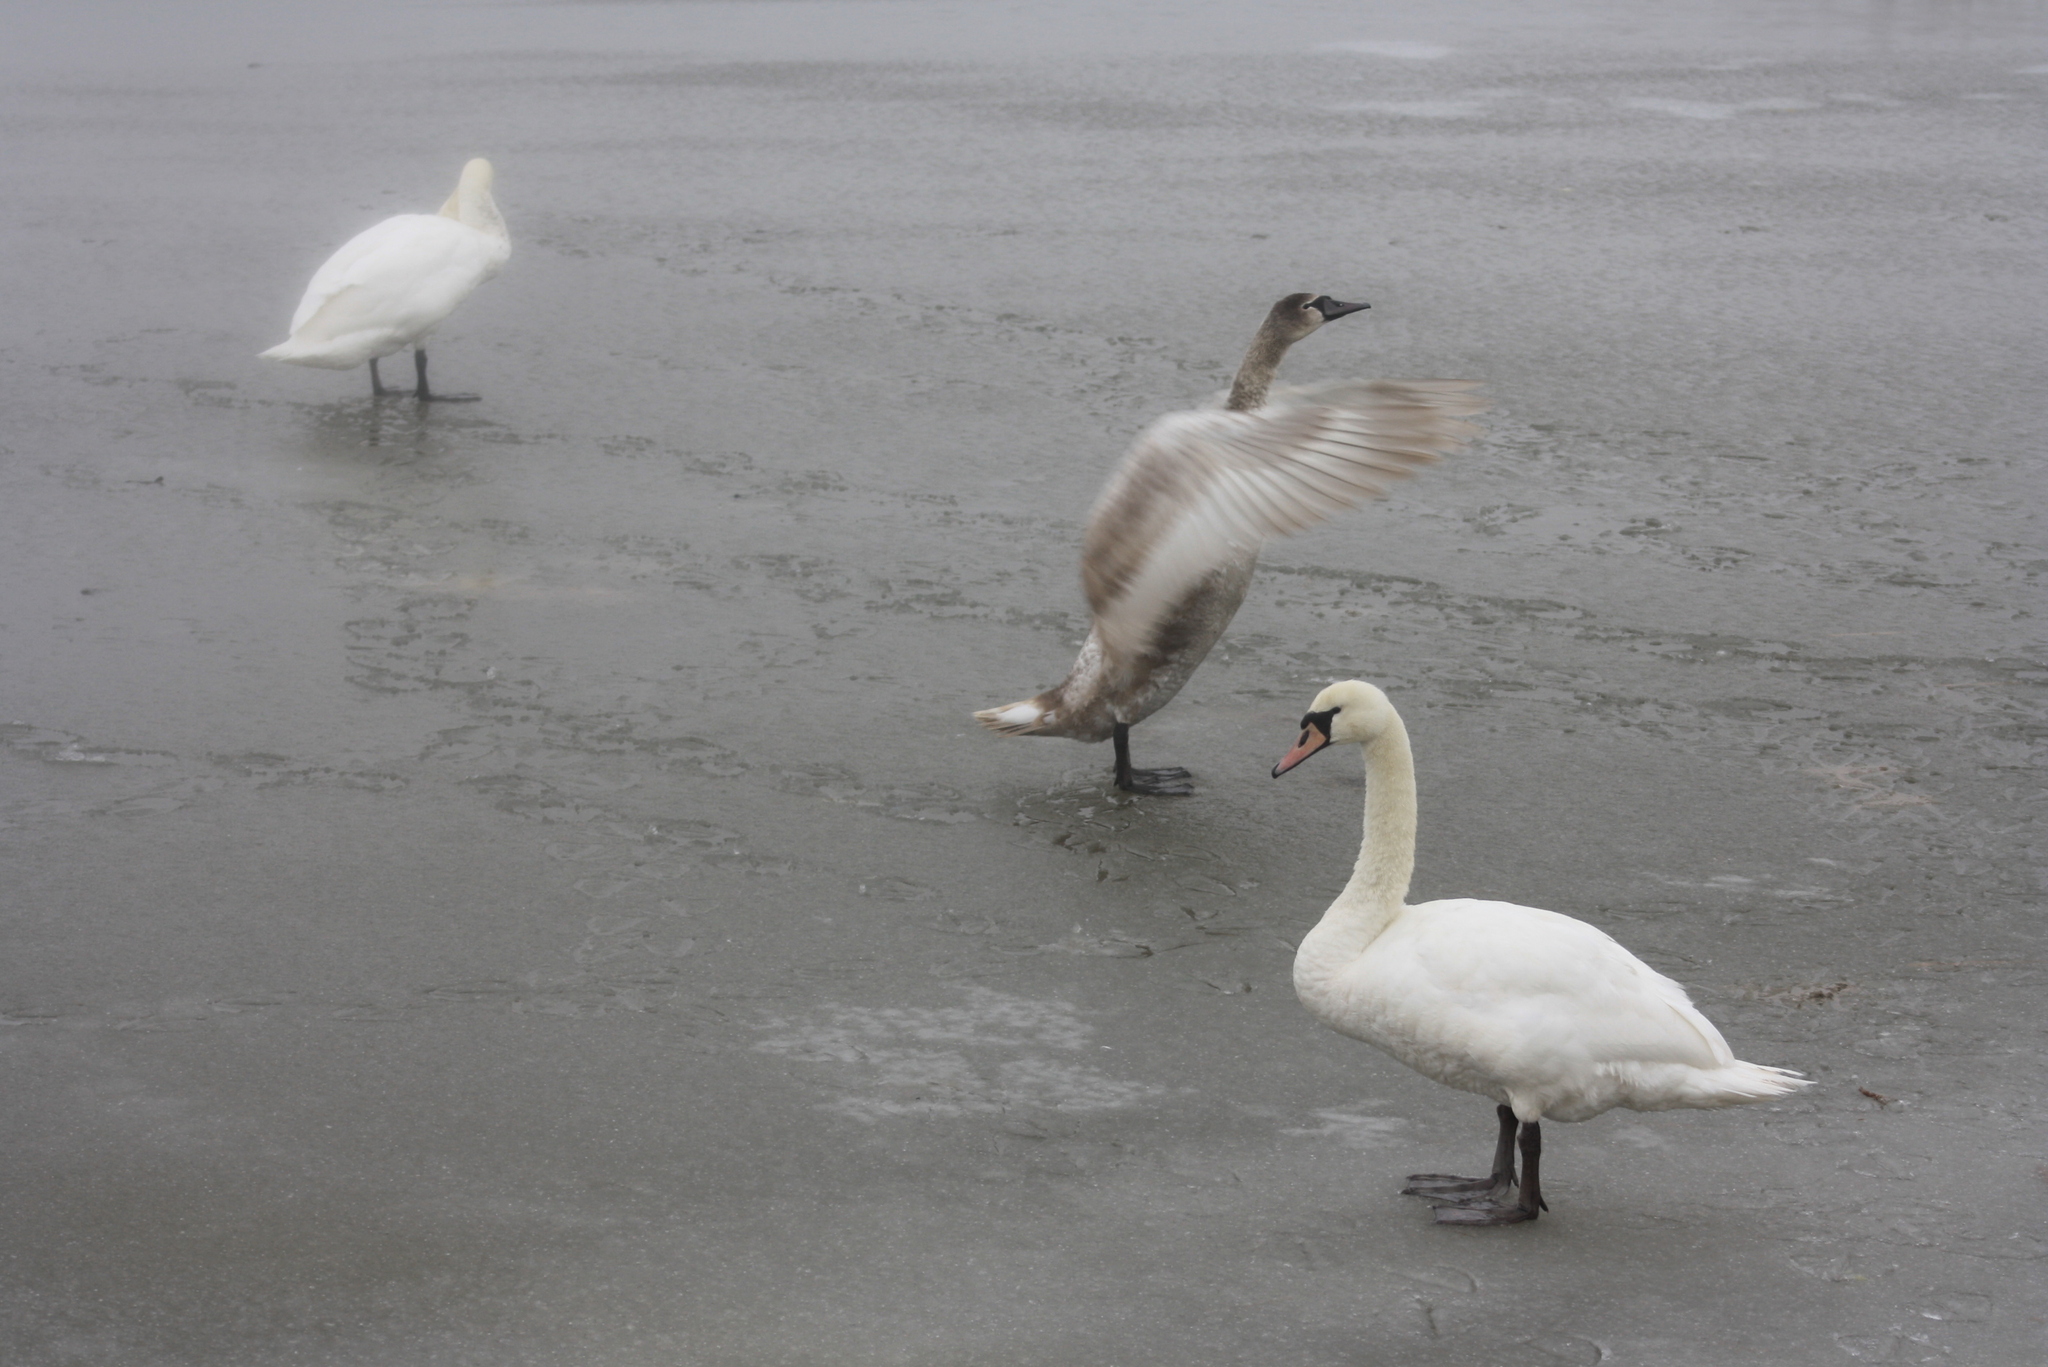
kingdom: Animalia
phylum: Chordata
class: Aves
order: Anseriformes
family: Anatidae
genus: Cygnus
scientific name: Cygnus olor
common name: Mute swan
